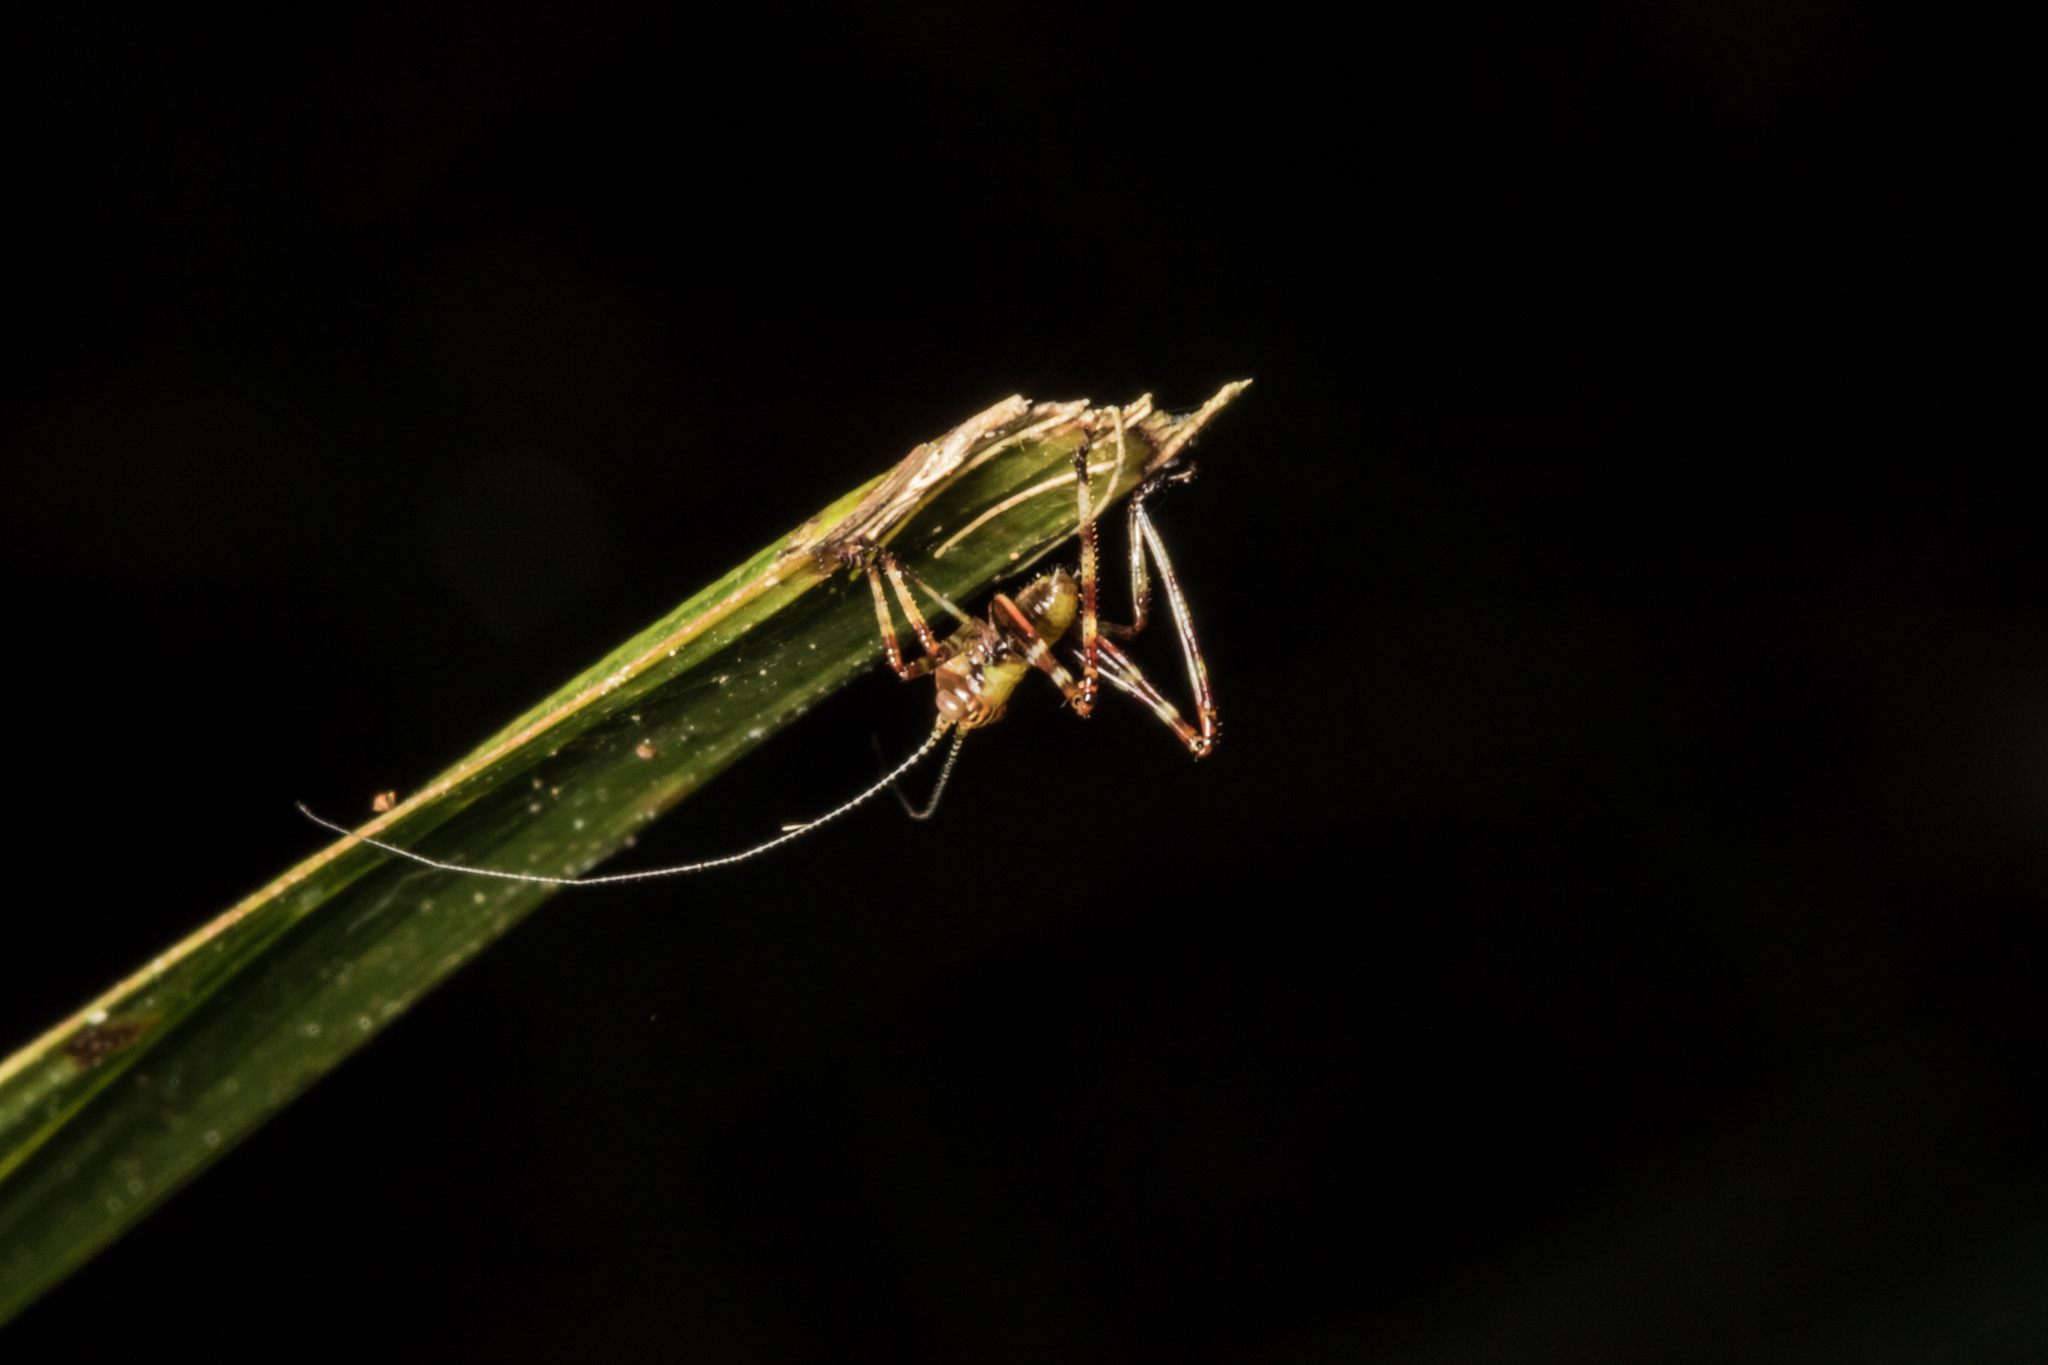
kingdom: Animalia
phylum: Arthropoda
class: Insecta
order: Orthoptera
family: Tettigoniidae
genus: Caedicia
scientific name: Caedicia simplex
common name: Common garden katydid
